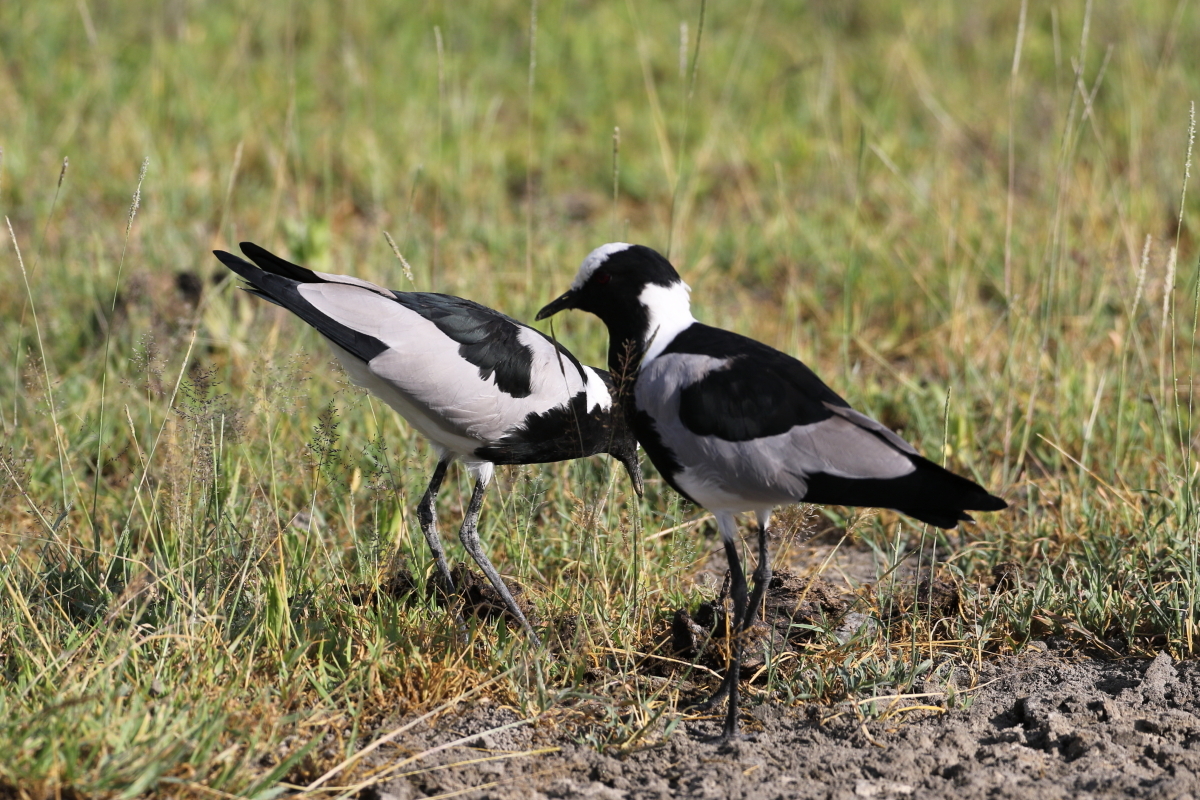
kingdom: Animalia
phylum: Chordata
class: Aves
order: Charadriiformes
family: Charadriidae
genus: Vanellus
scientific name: Vanellus armatus
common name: Blacksmith lapwing
